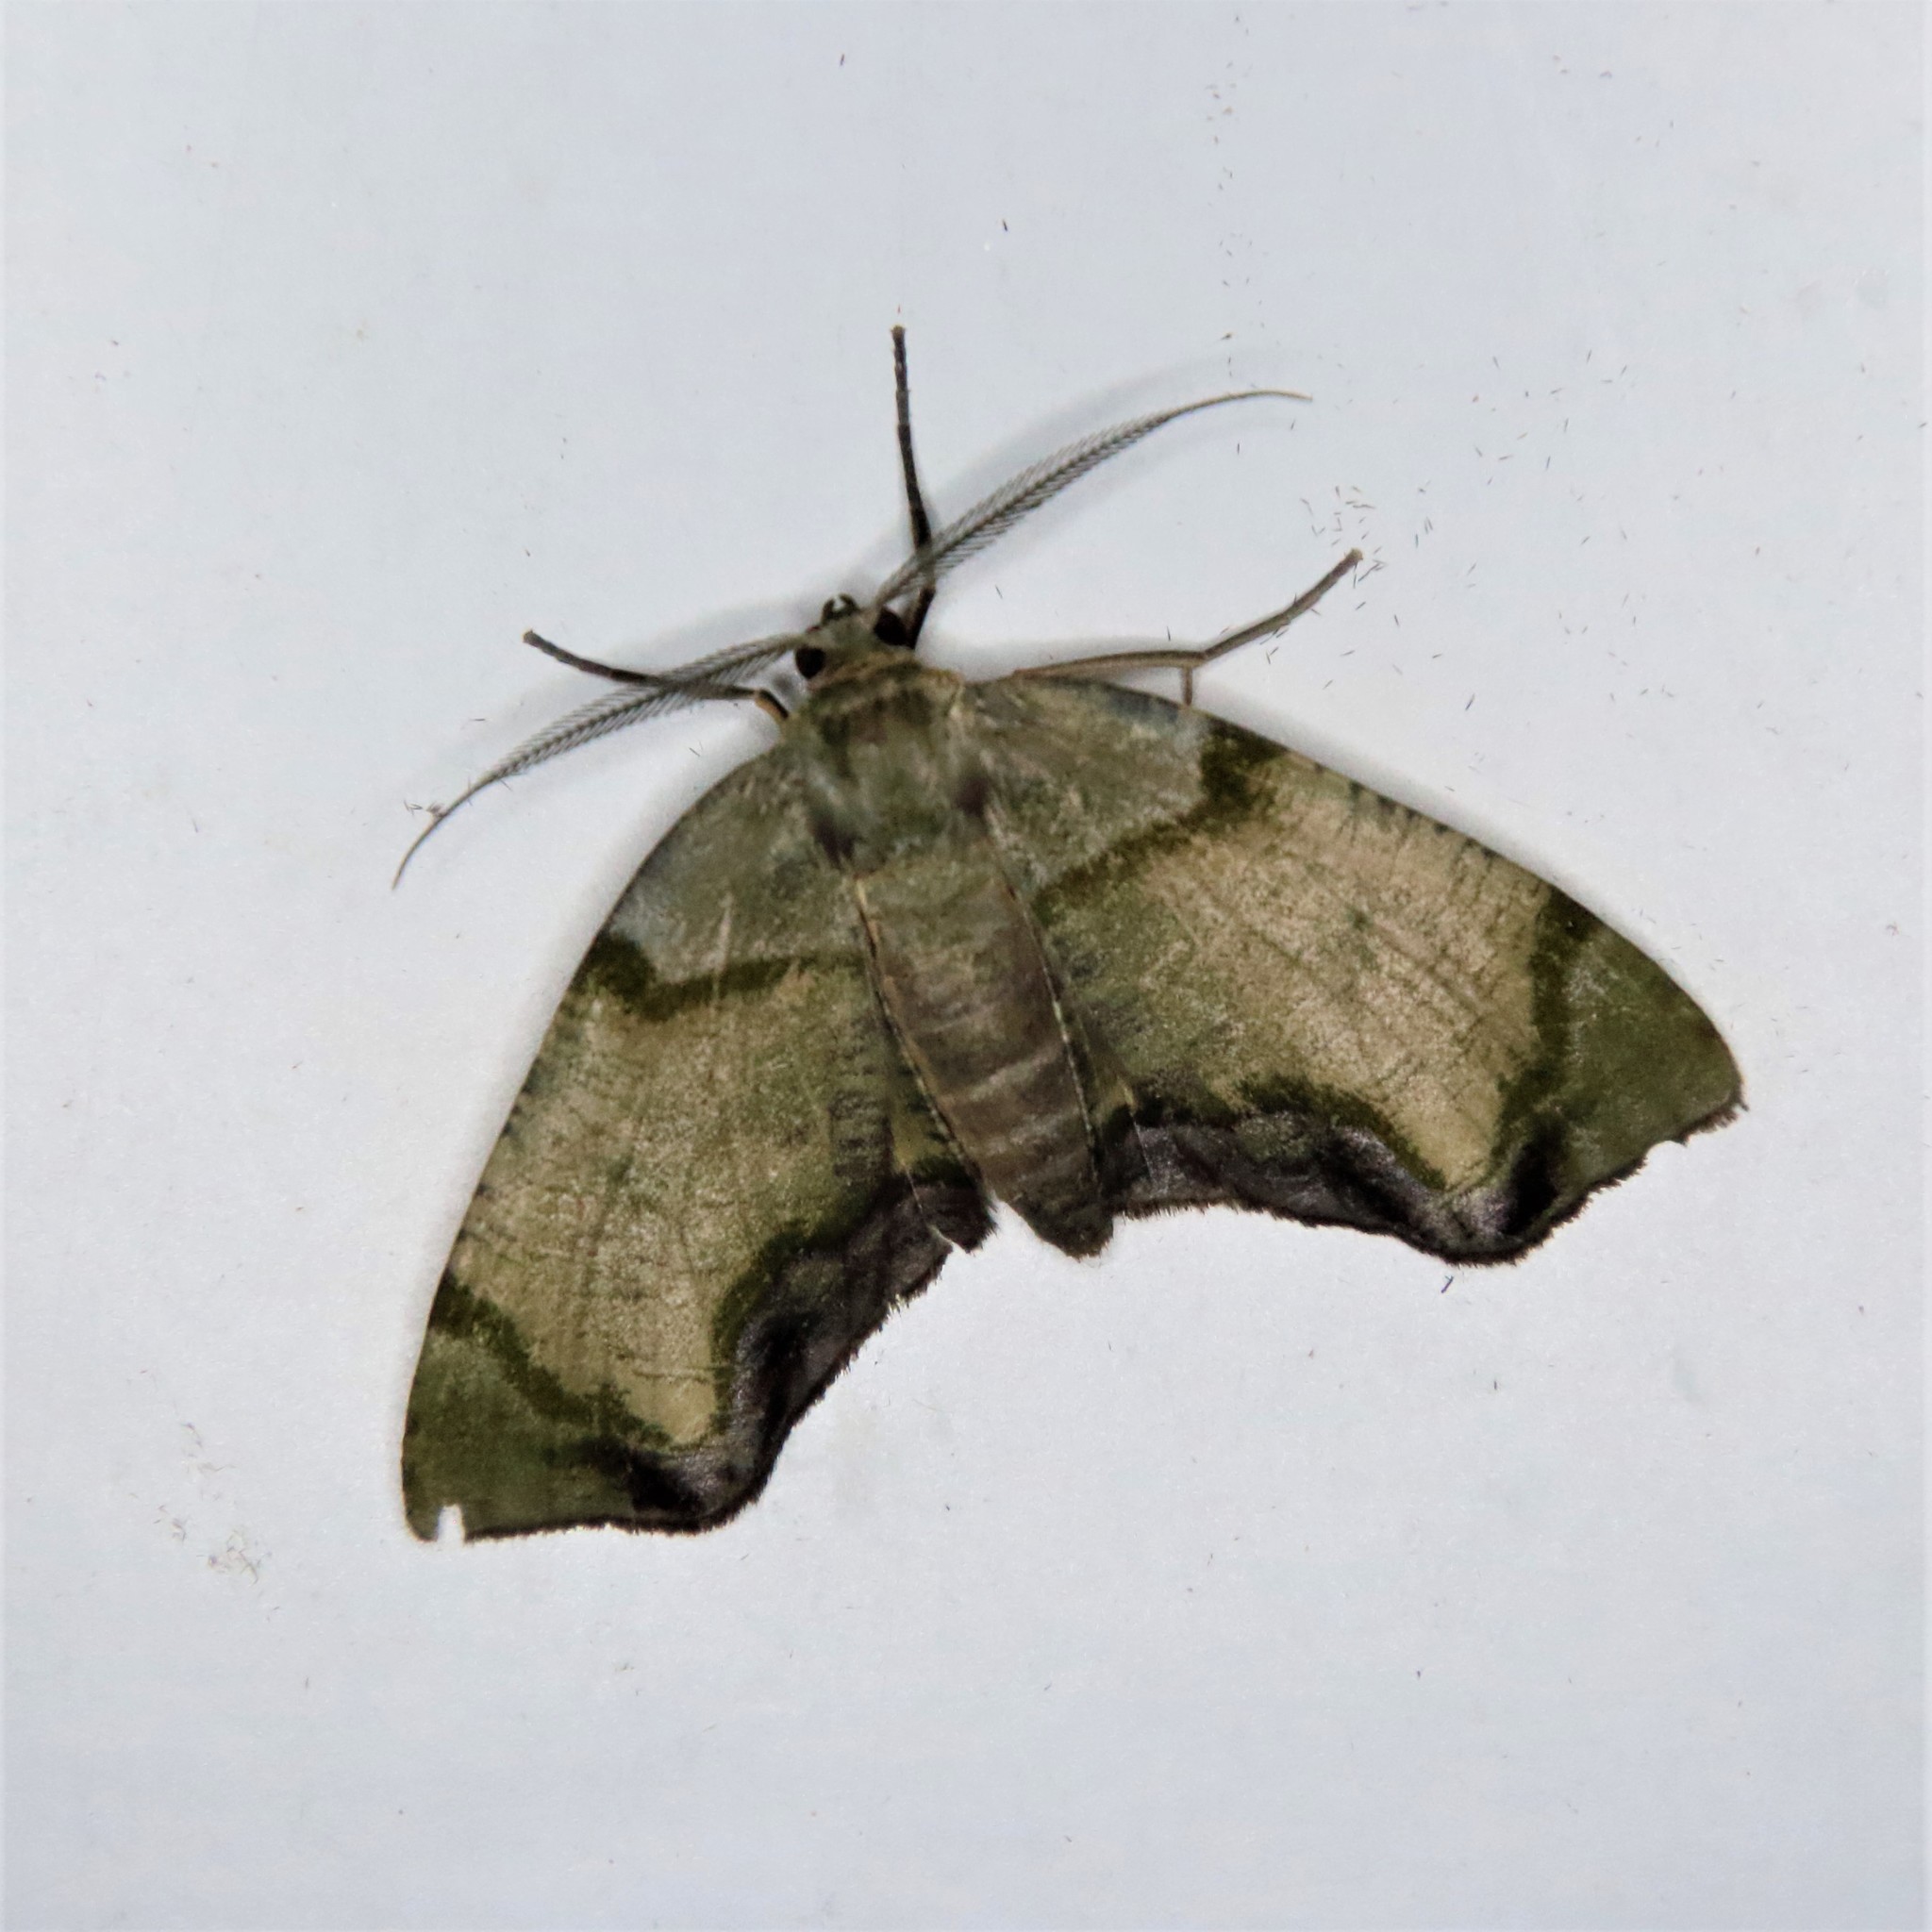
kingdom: Animalia
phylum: Arthropoda
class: Insecta
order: Lepidoptera
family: Geometridae
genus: Achrosis
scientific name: Achrosis incitata
